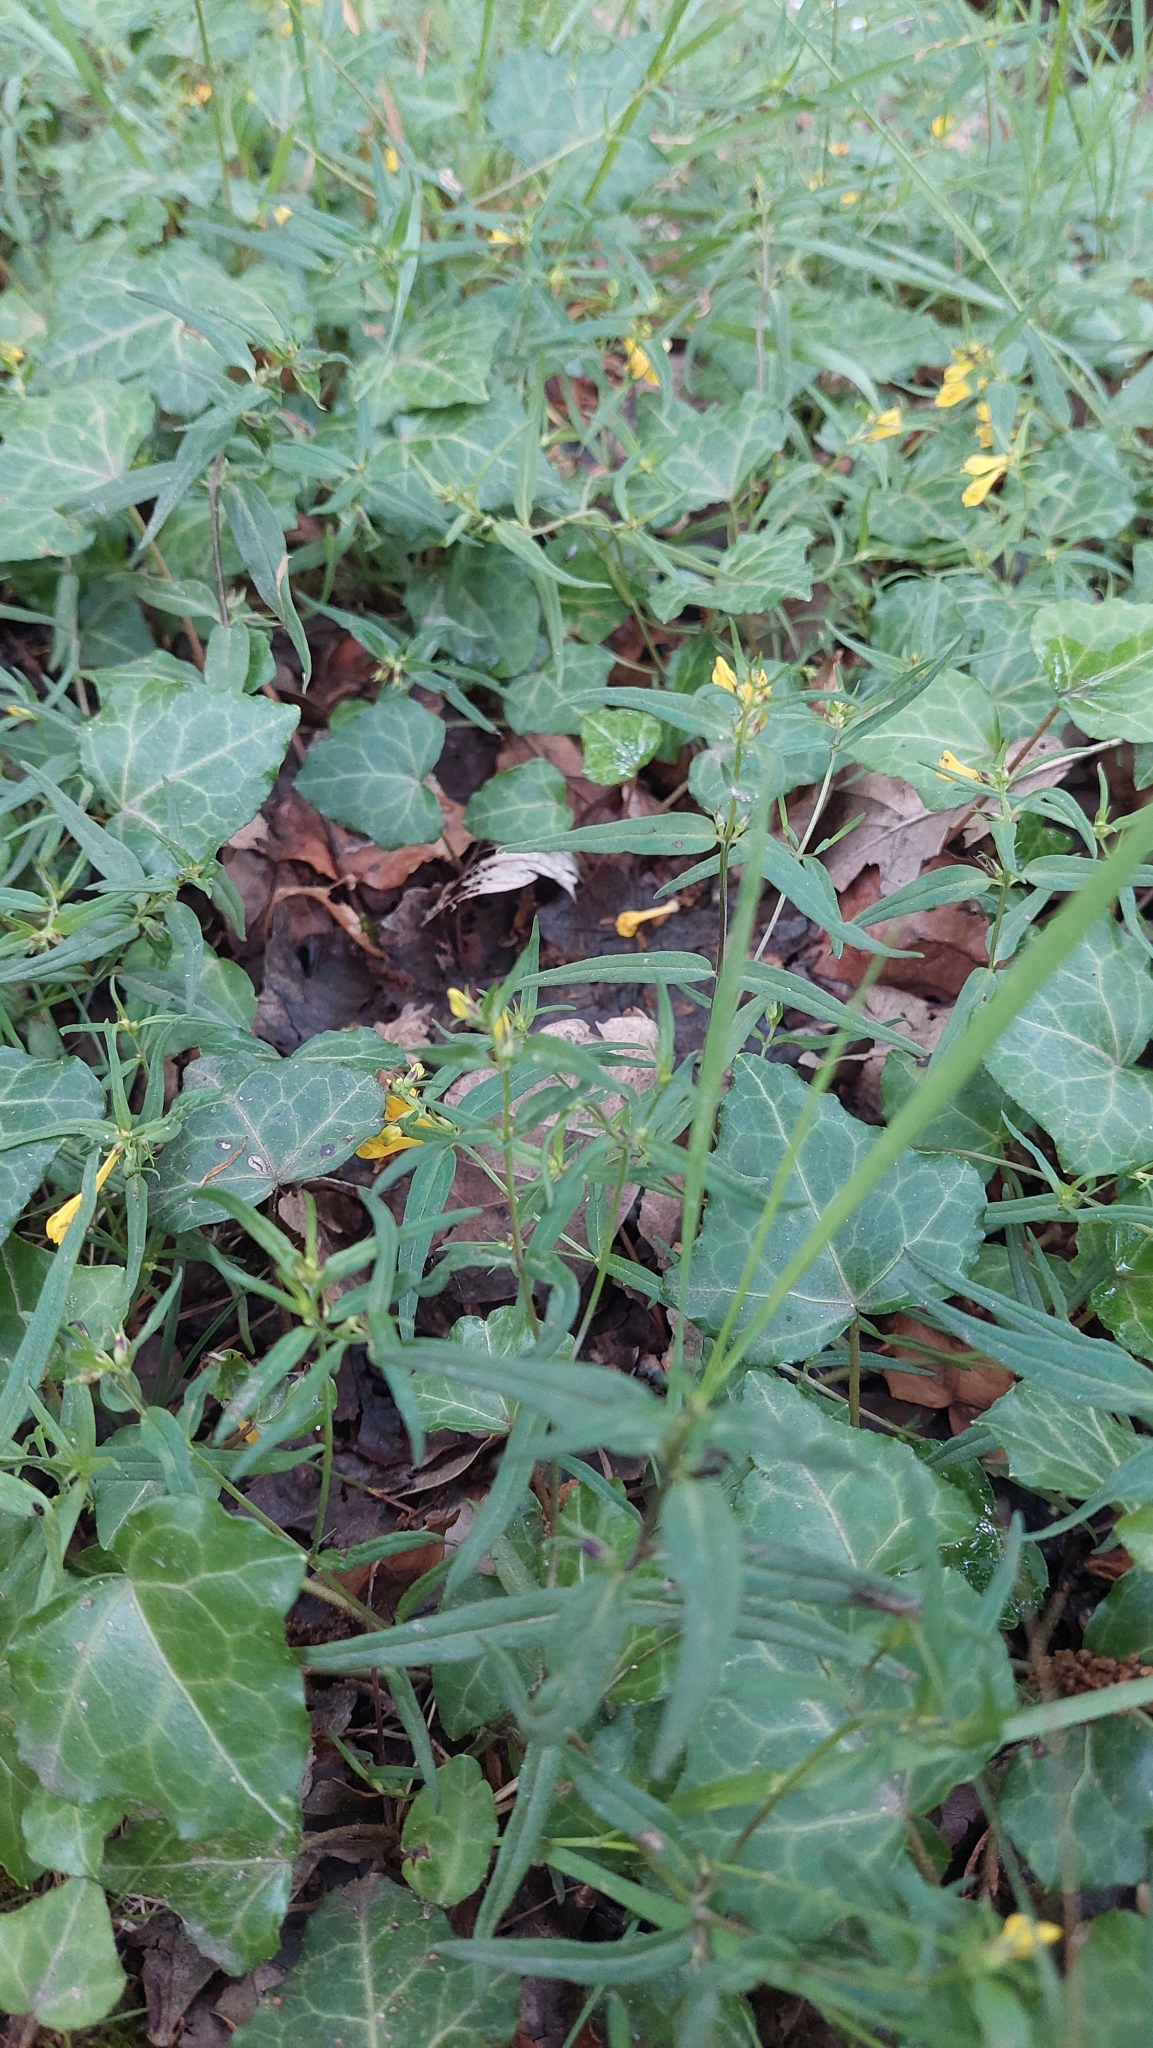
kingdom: Plantae
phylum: Tracheophyta
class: Magnoliopsida
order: Lamiales
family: Orobanchaceae
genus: Melampyrum
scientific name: Melampyrum pratense
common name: Common cow-wheat
